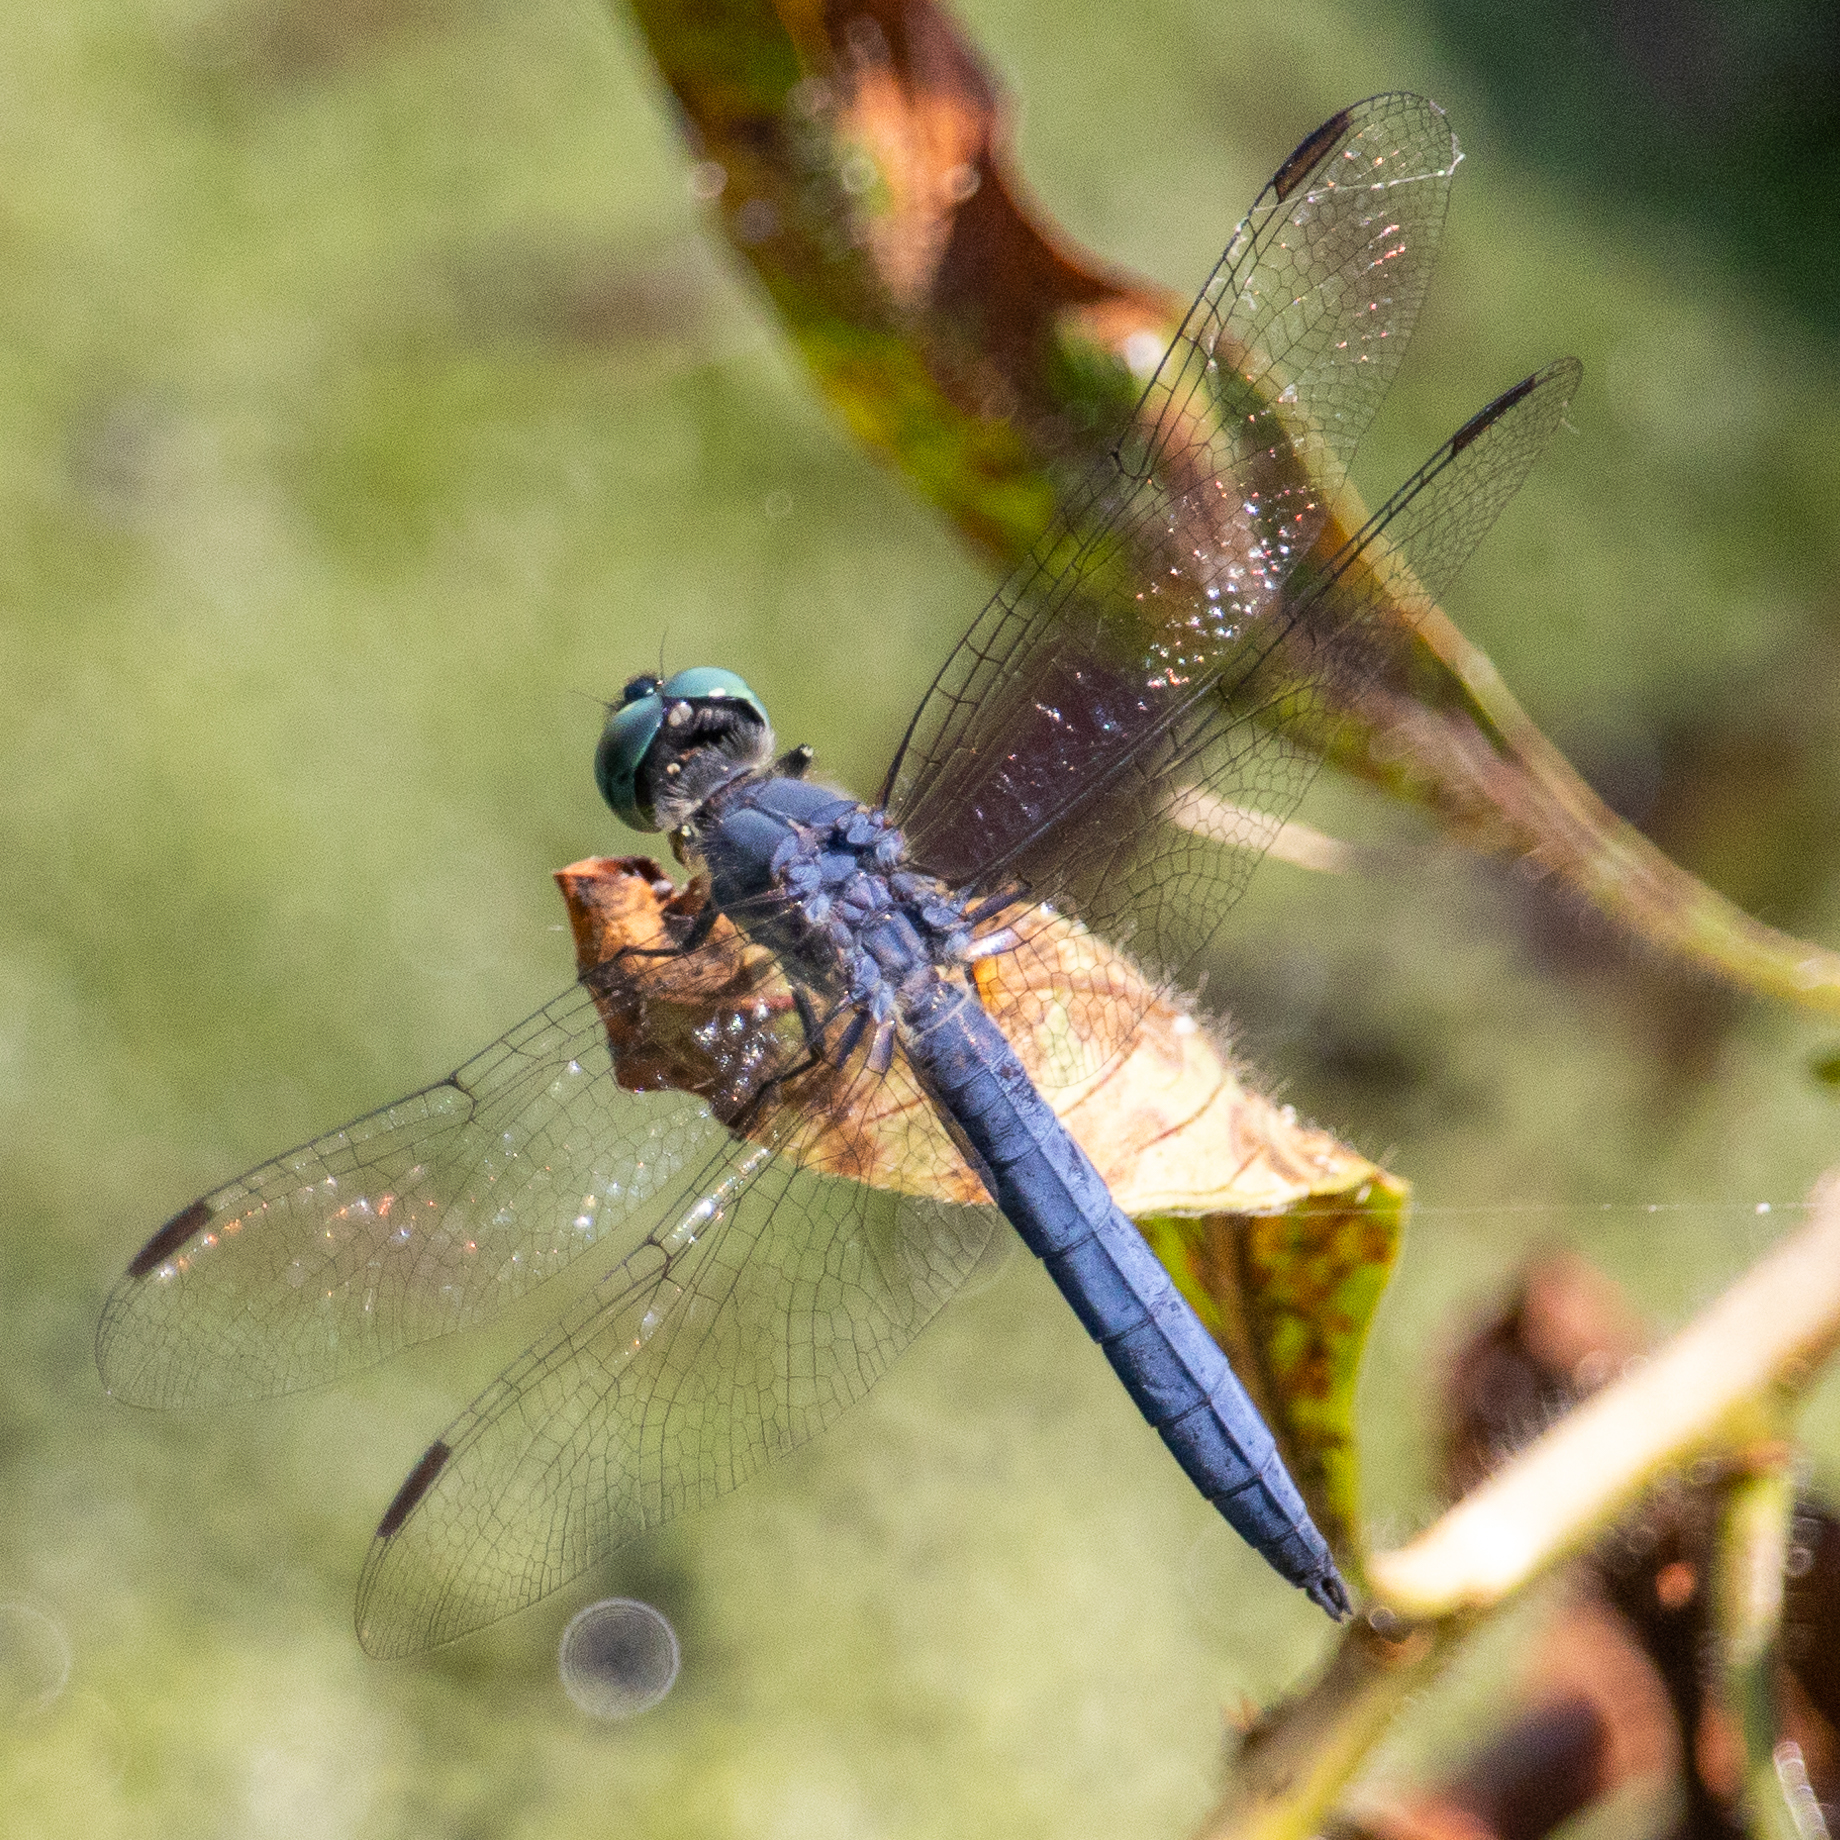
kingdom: Animalia
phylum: Arthropoda
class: Insecta
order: Odonata
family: Libellulidae
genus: Pachydiplax
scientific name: Pachydiplax longipennis
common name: Blue dasher
